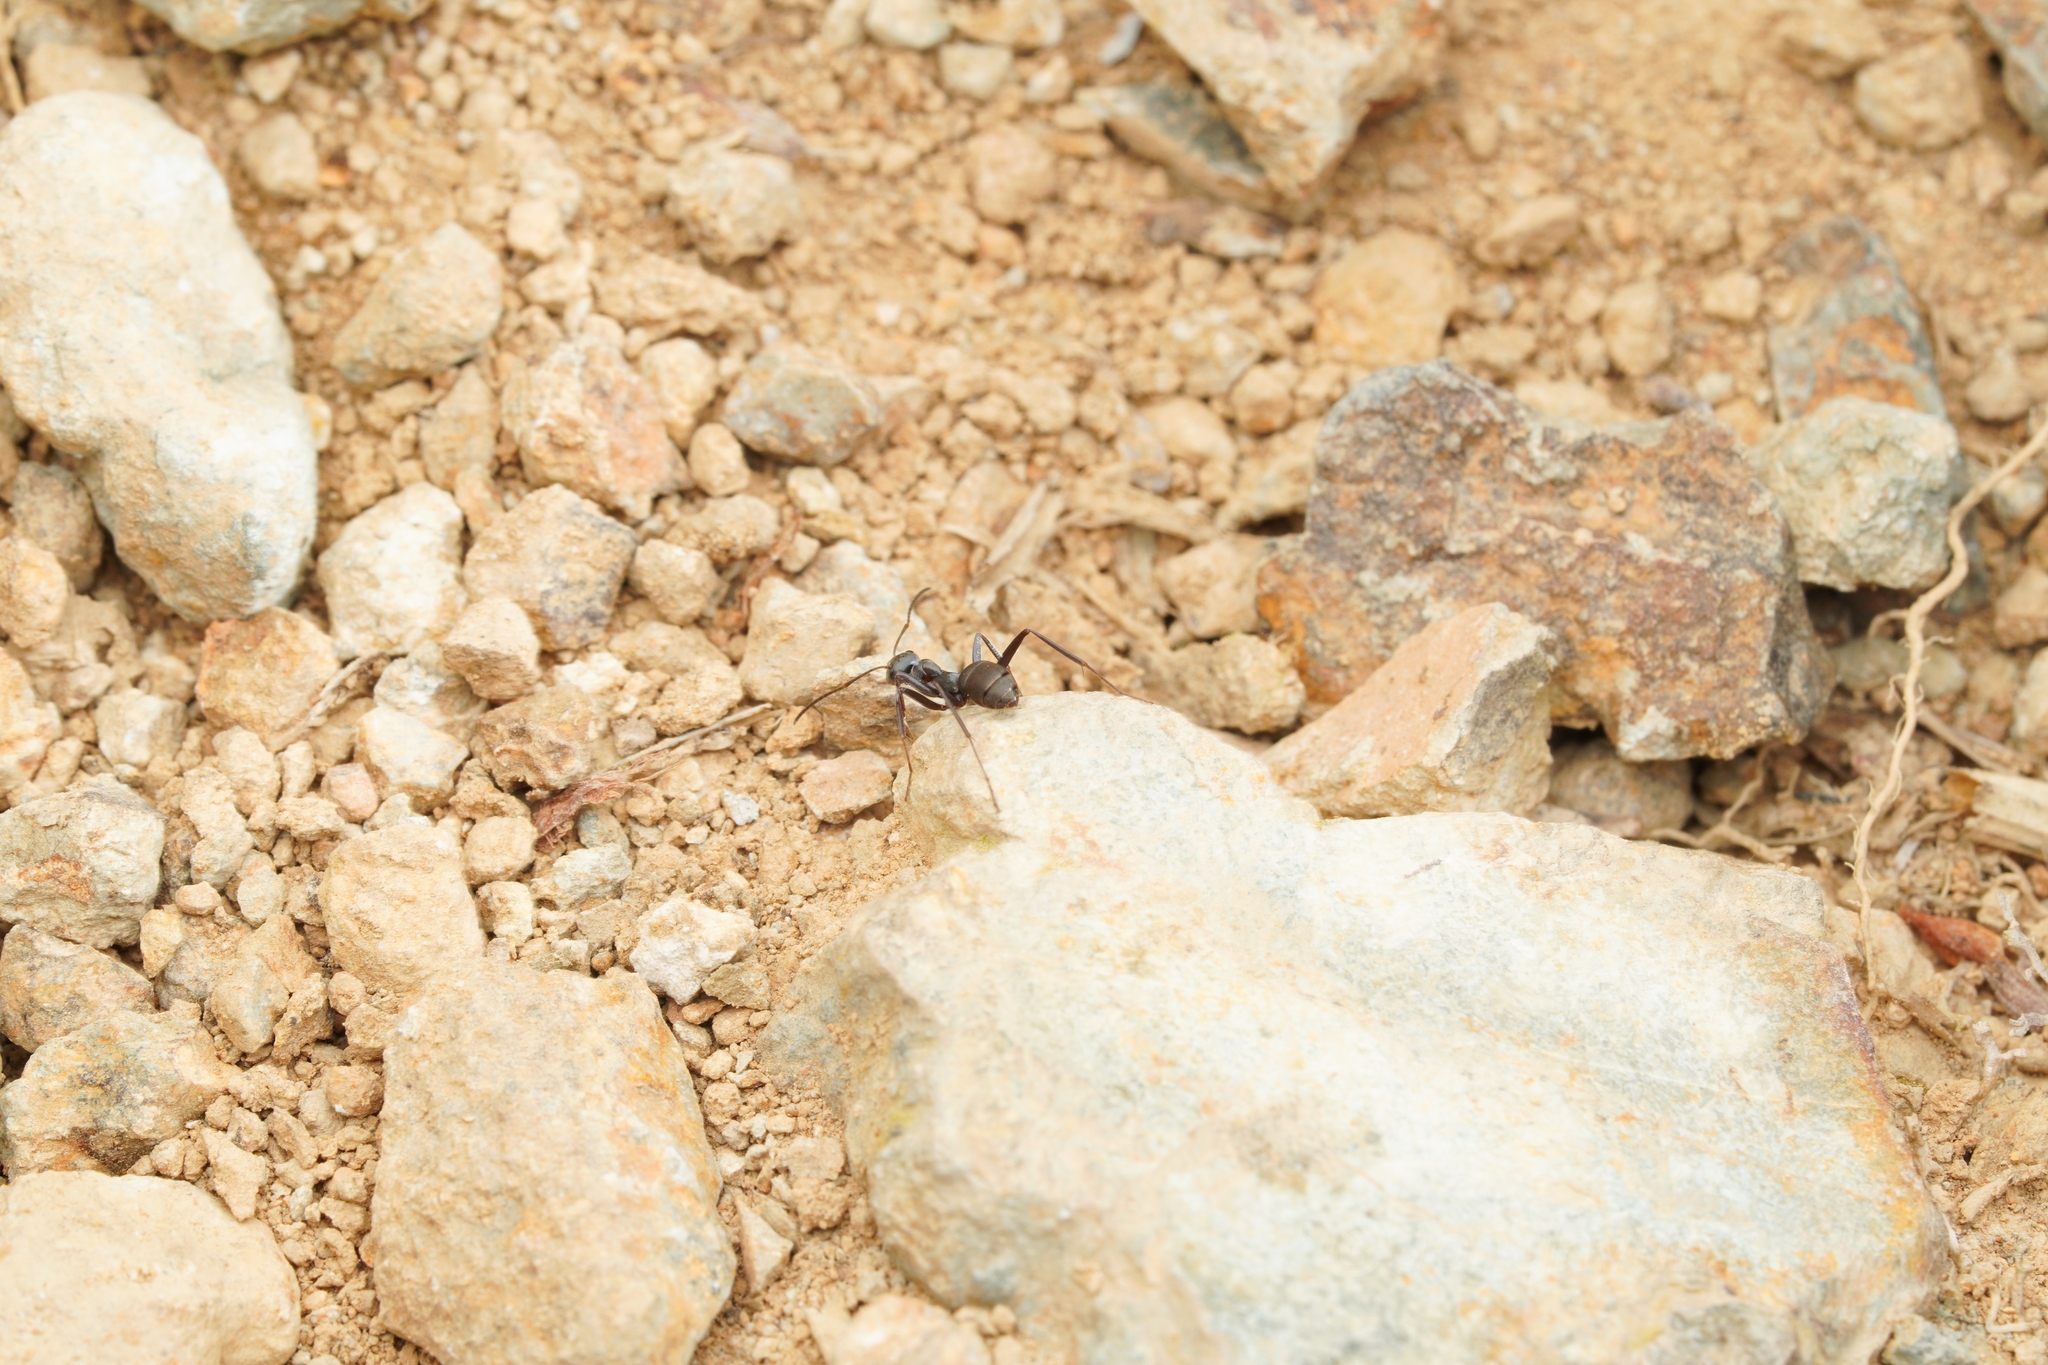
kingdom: Animalia
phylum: Arthropoda
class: Insecta
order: Hymenoptera
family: Formicidae
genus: Formica
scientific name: Formica japonica
